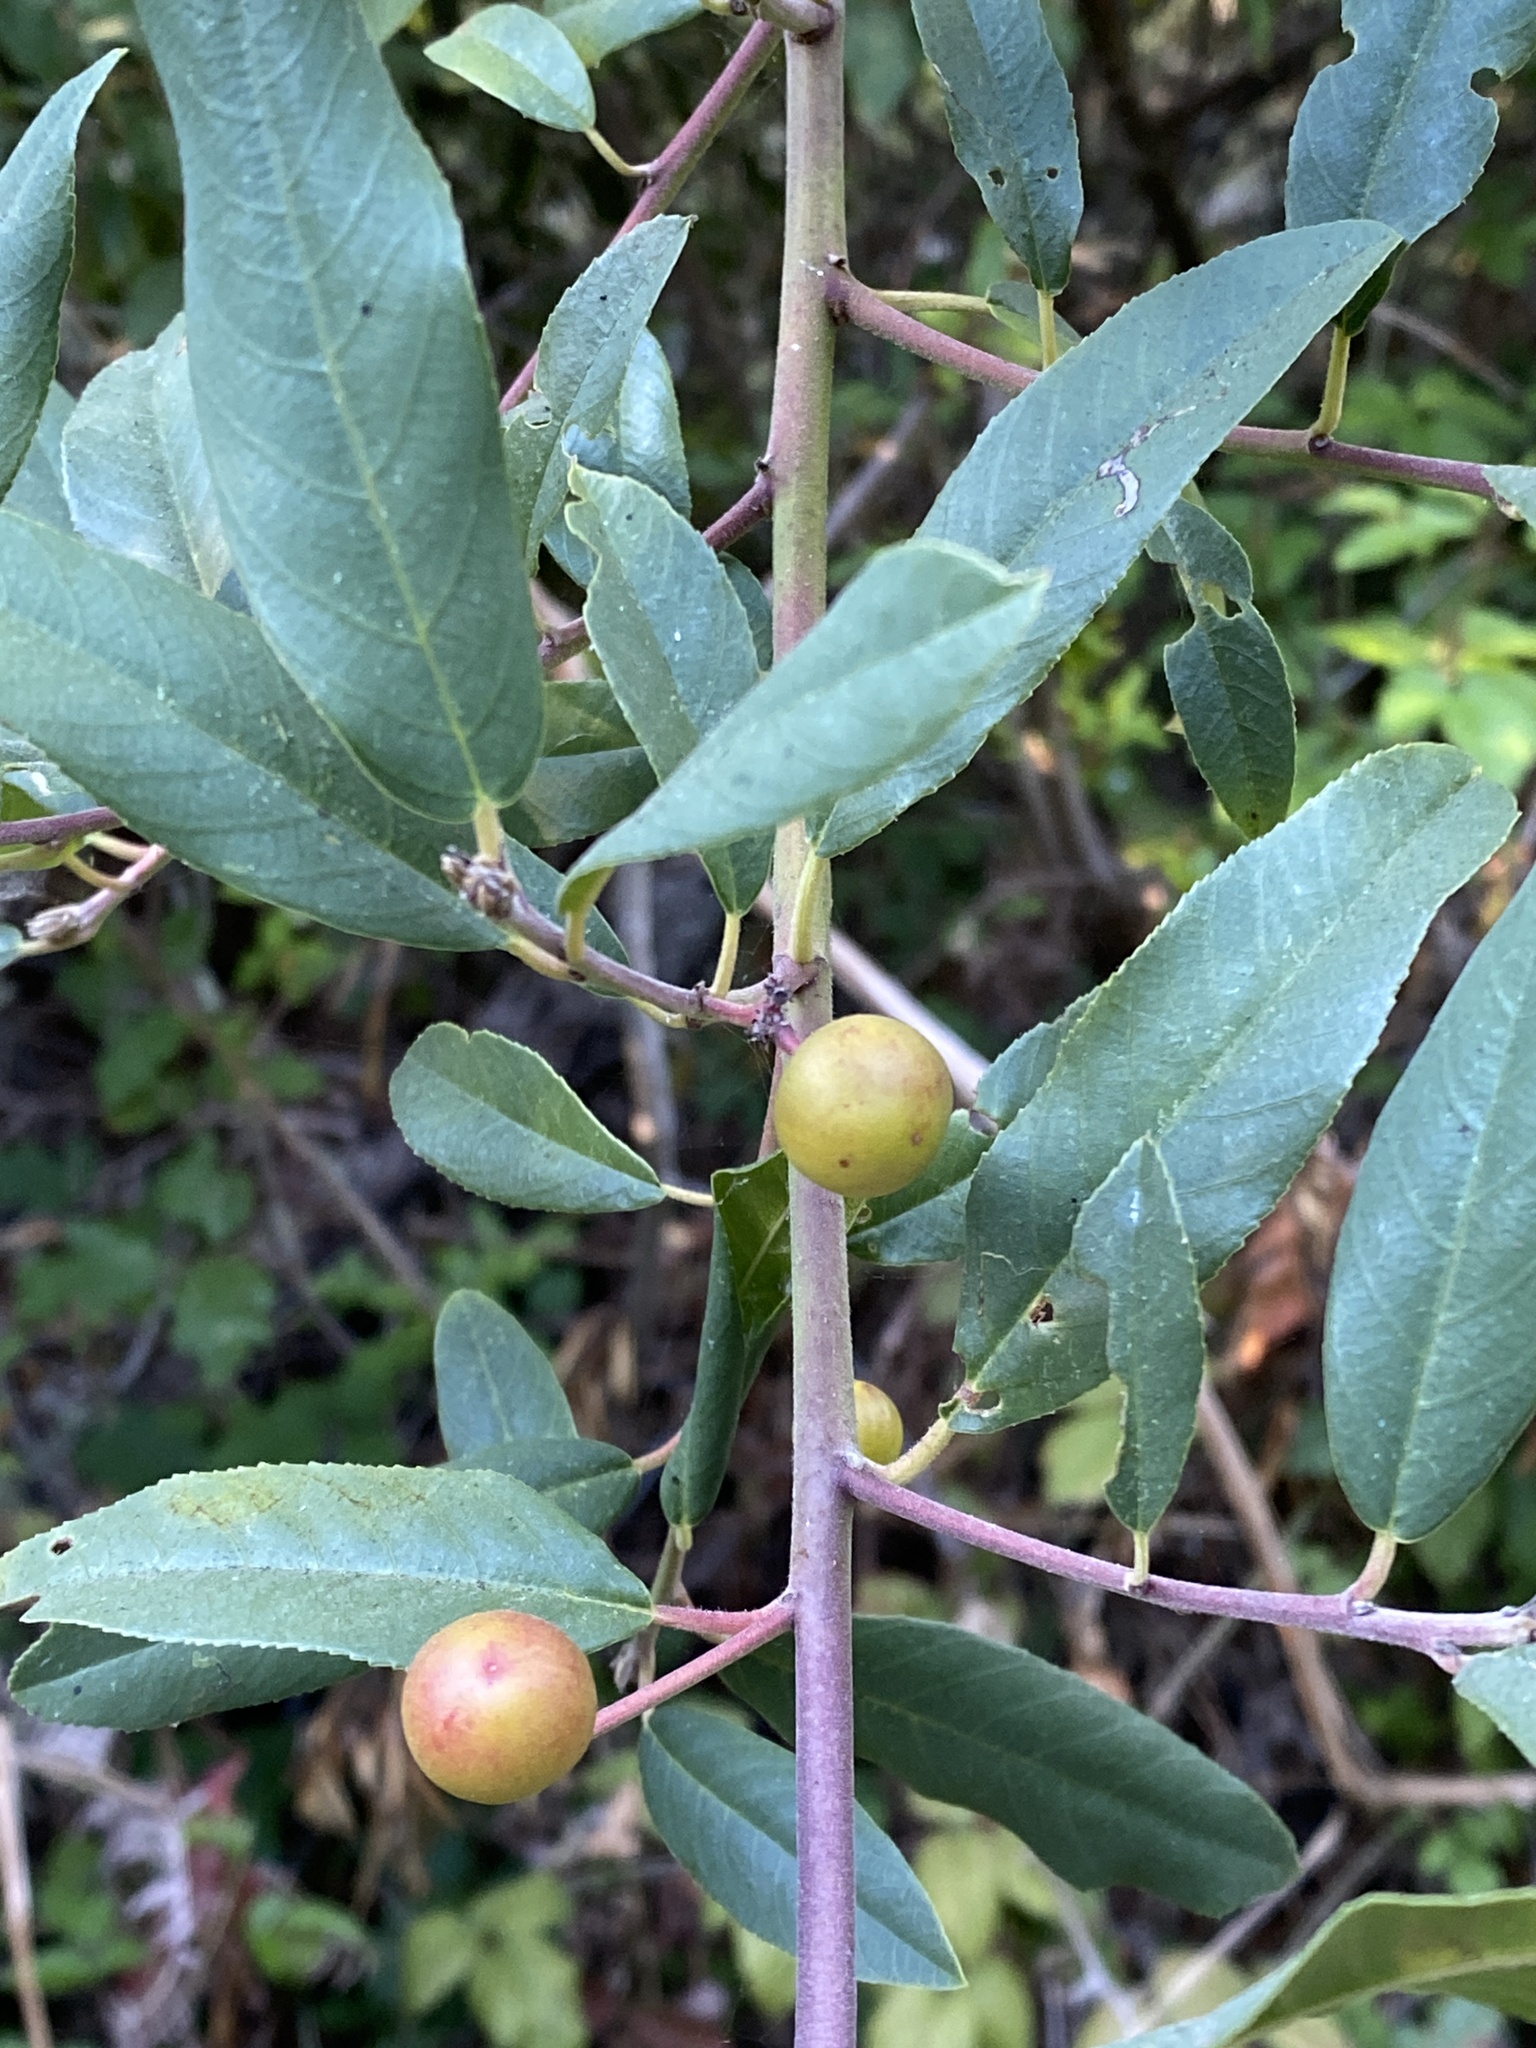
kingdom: Plantae
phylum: Tracheophyta
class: Magnoliopsida
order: Rosales
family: Rhamnaceae
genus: Frangula
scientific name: Frangula californica
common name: California buckthorn
